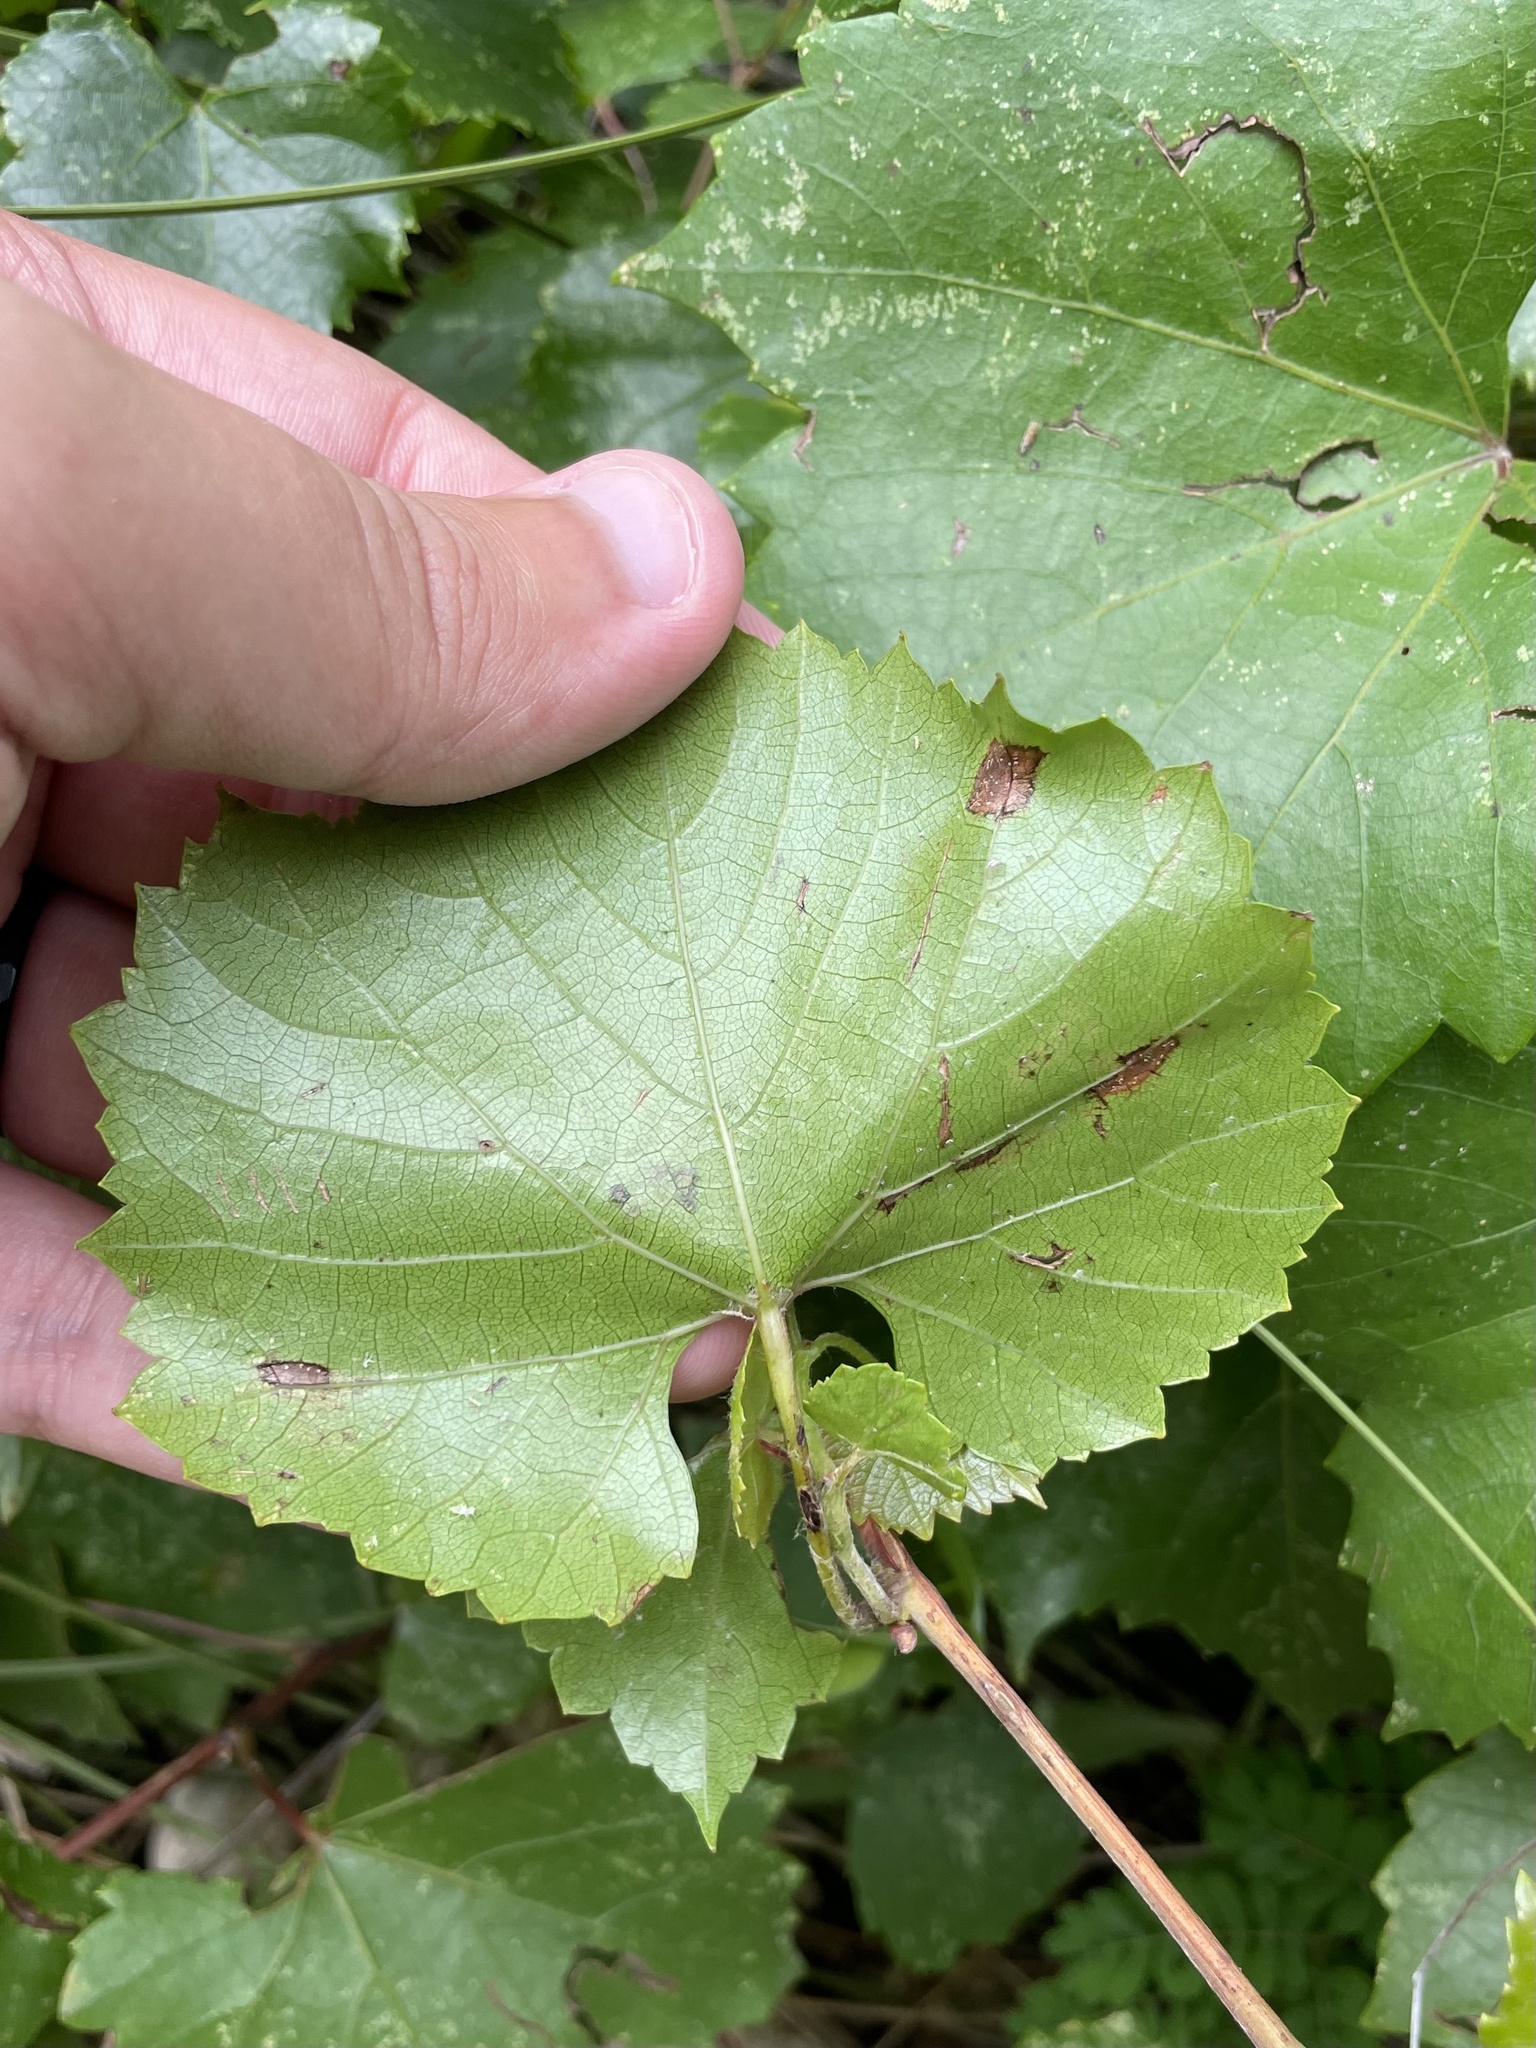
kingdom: Plantae
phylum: Tracheophyta
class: Magnoliopsida
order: Vitales
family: Vitaceae
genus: Vitis
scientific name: Vitis monticola
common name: Mountain grape
